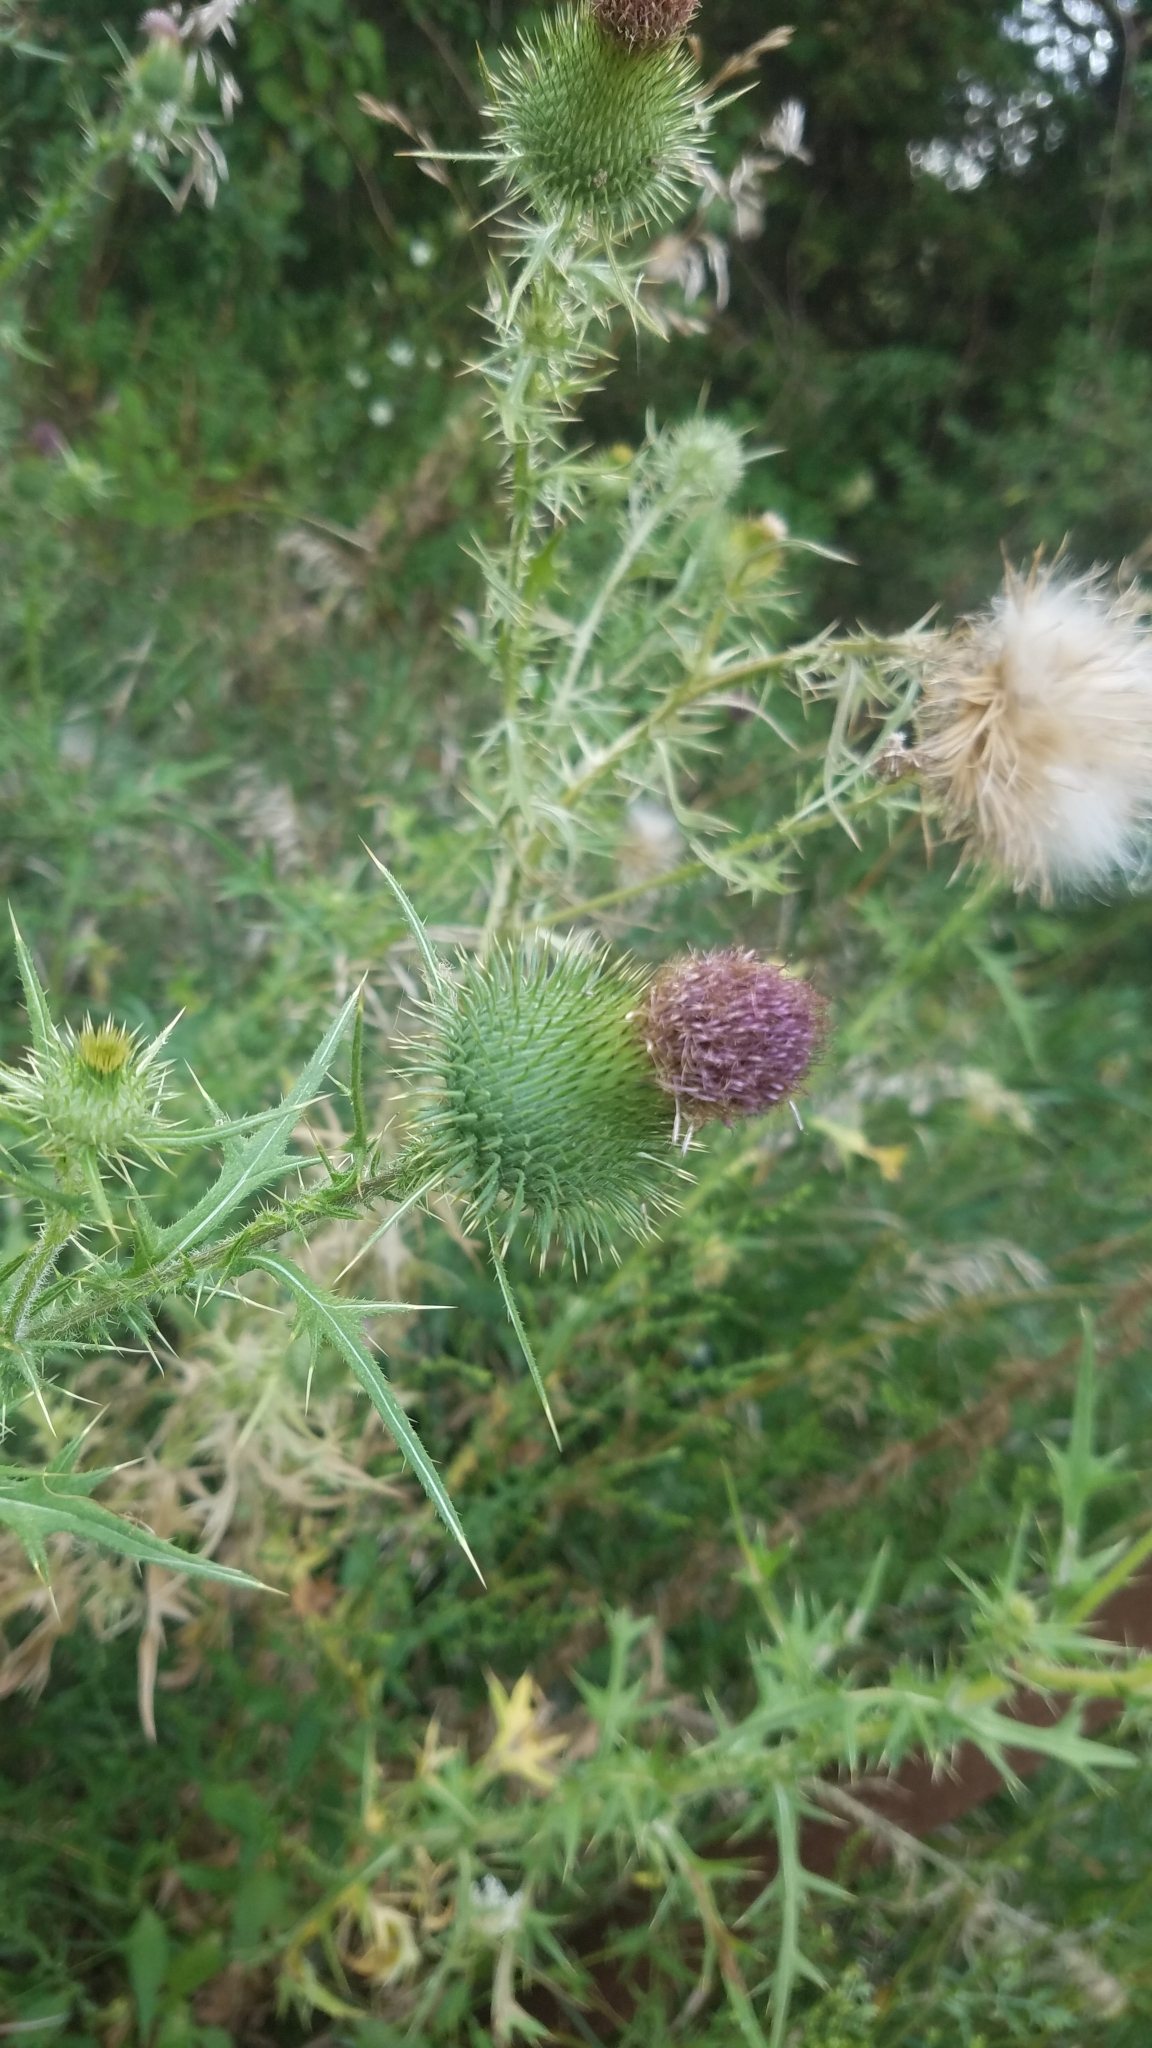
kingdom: Plantae
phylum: Tracheophyta
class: Magnoliopsida
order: Asterales
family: Asteraceae
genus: Cirsium
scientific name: Cirsium vulgare
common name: Bull thistle
